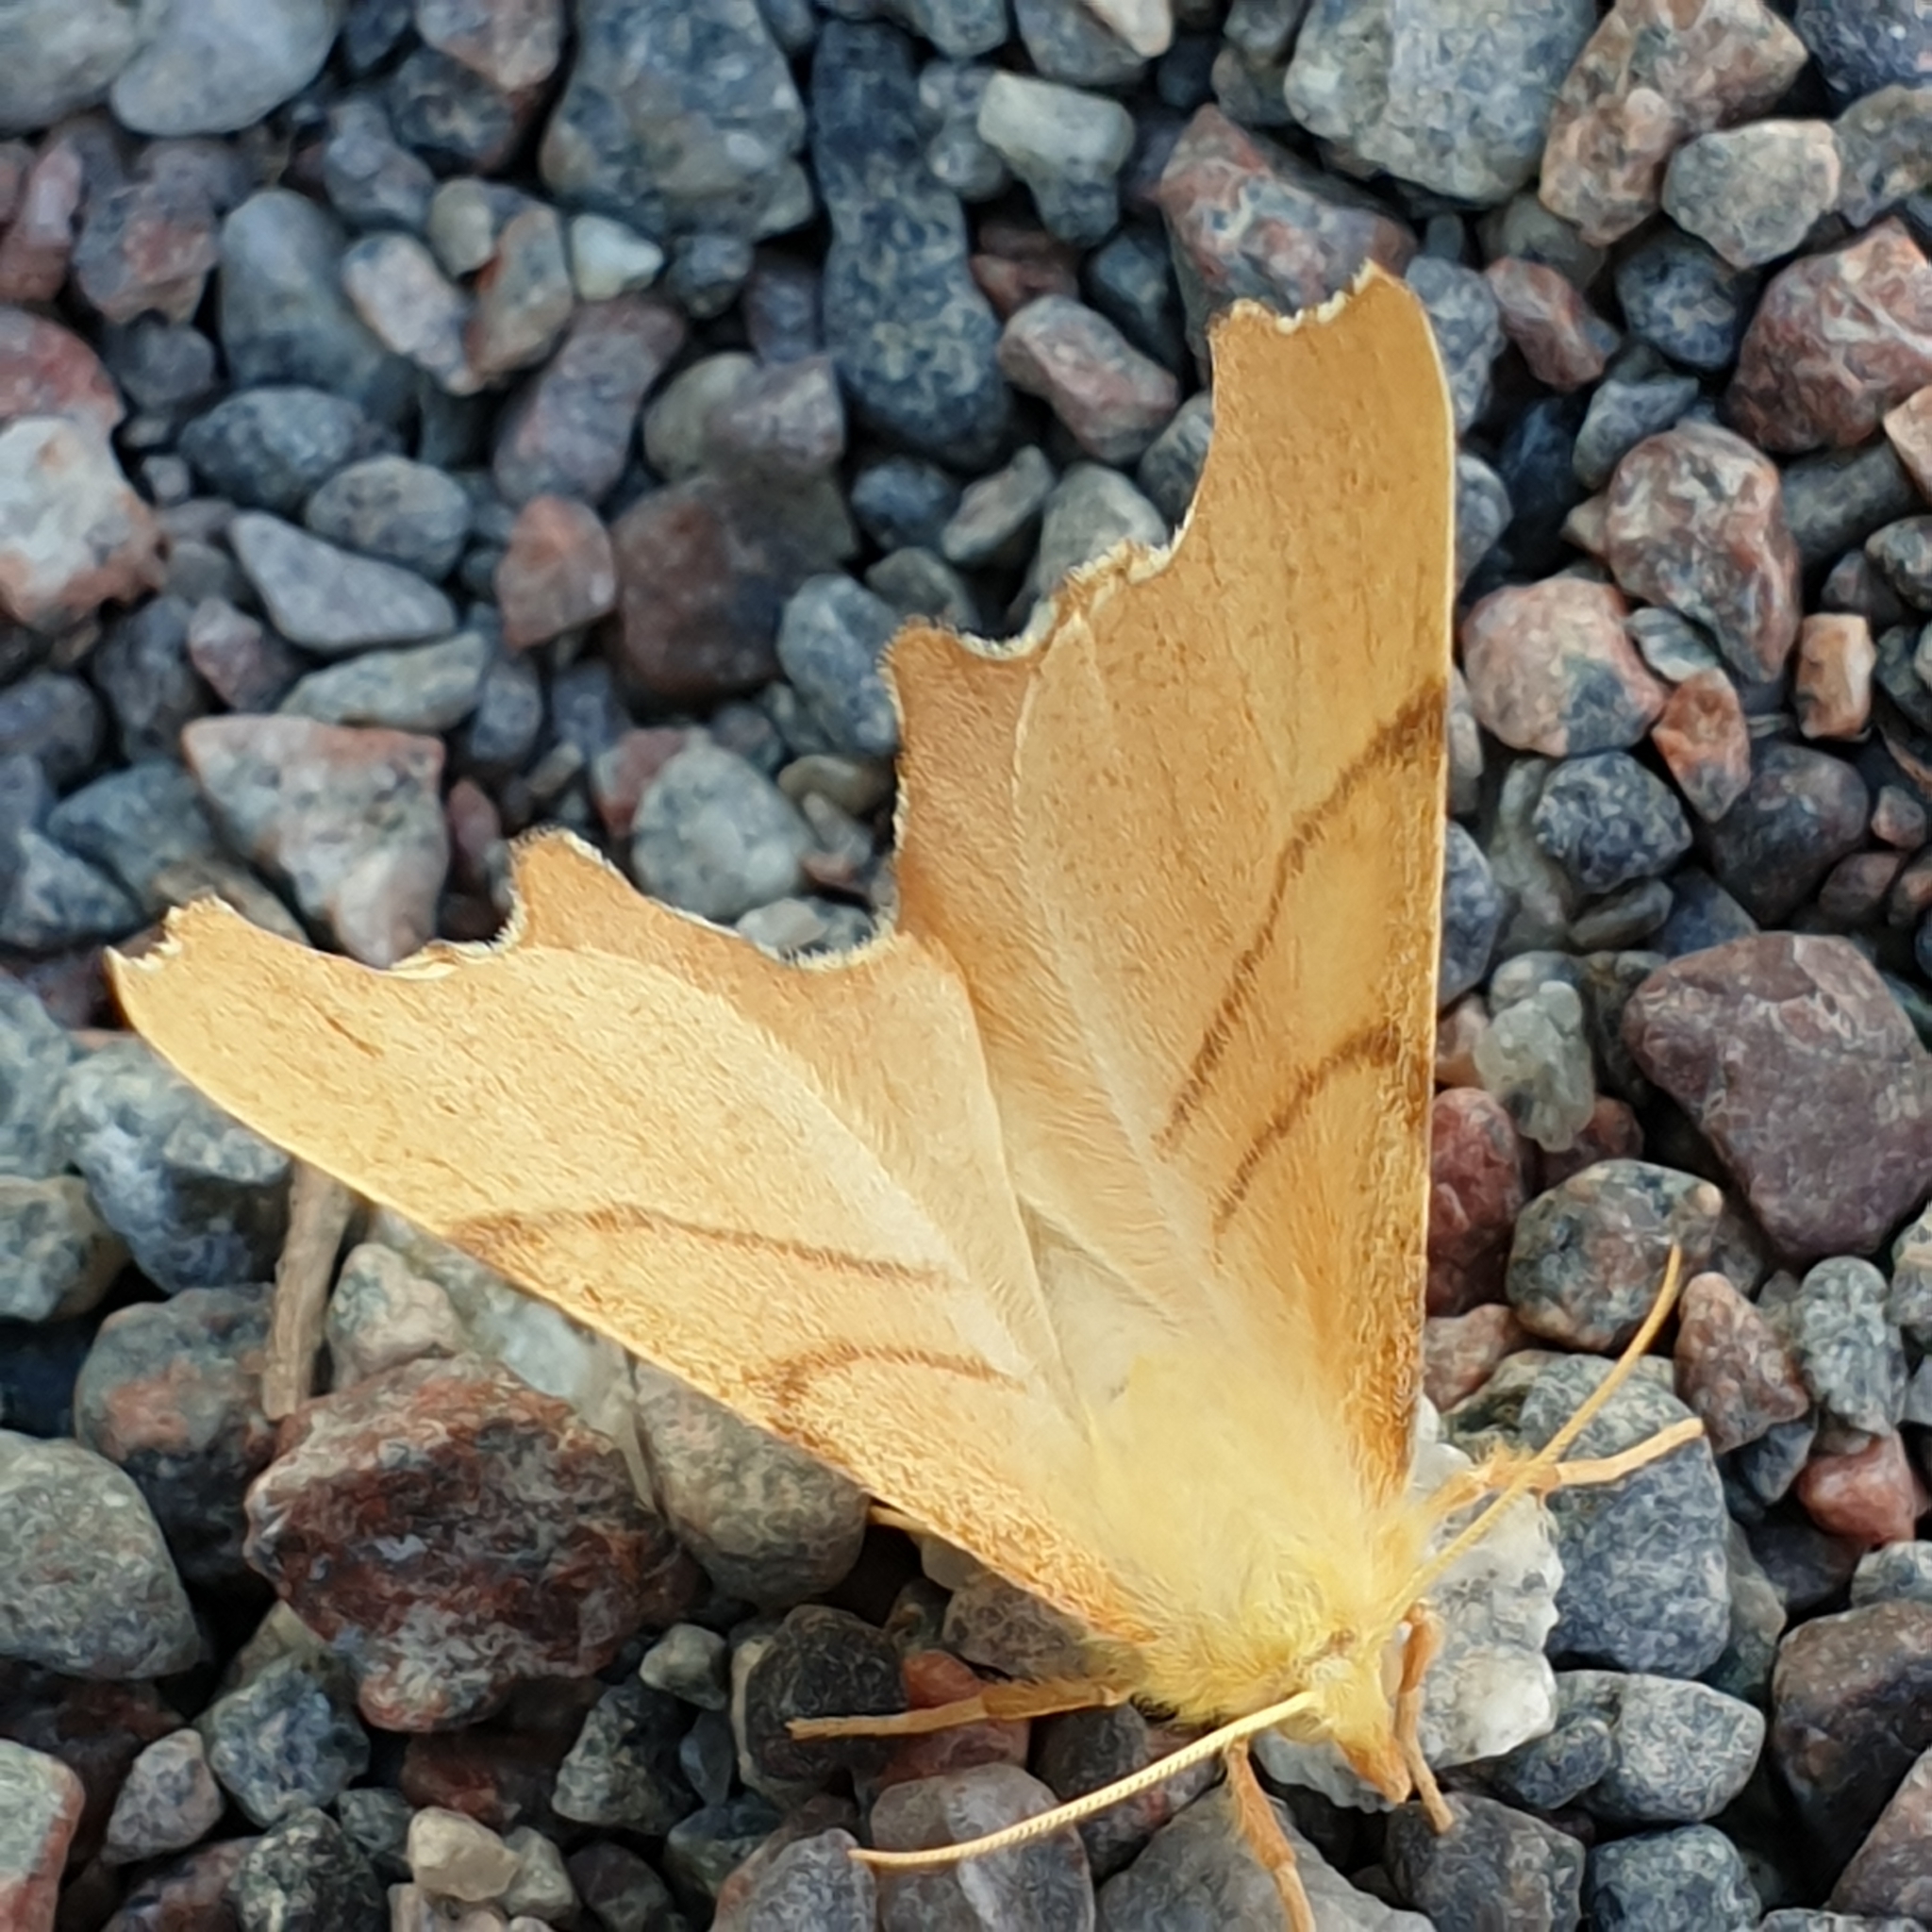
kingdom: Animalia
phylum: Arthropoda
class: Insecta
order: Lepidoptera
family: Geometridae
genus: Ennomos
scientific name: Ennomos erosaria
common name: September thorn
